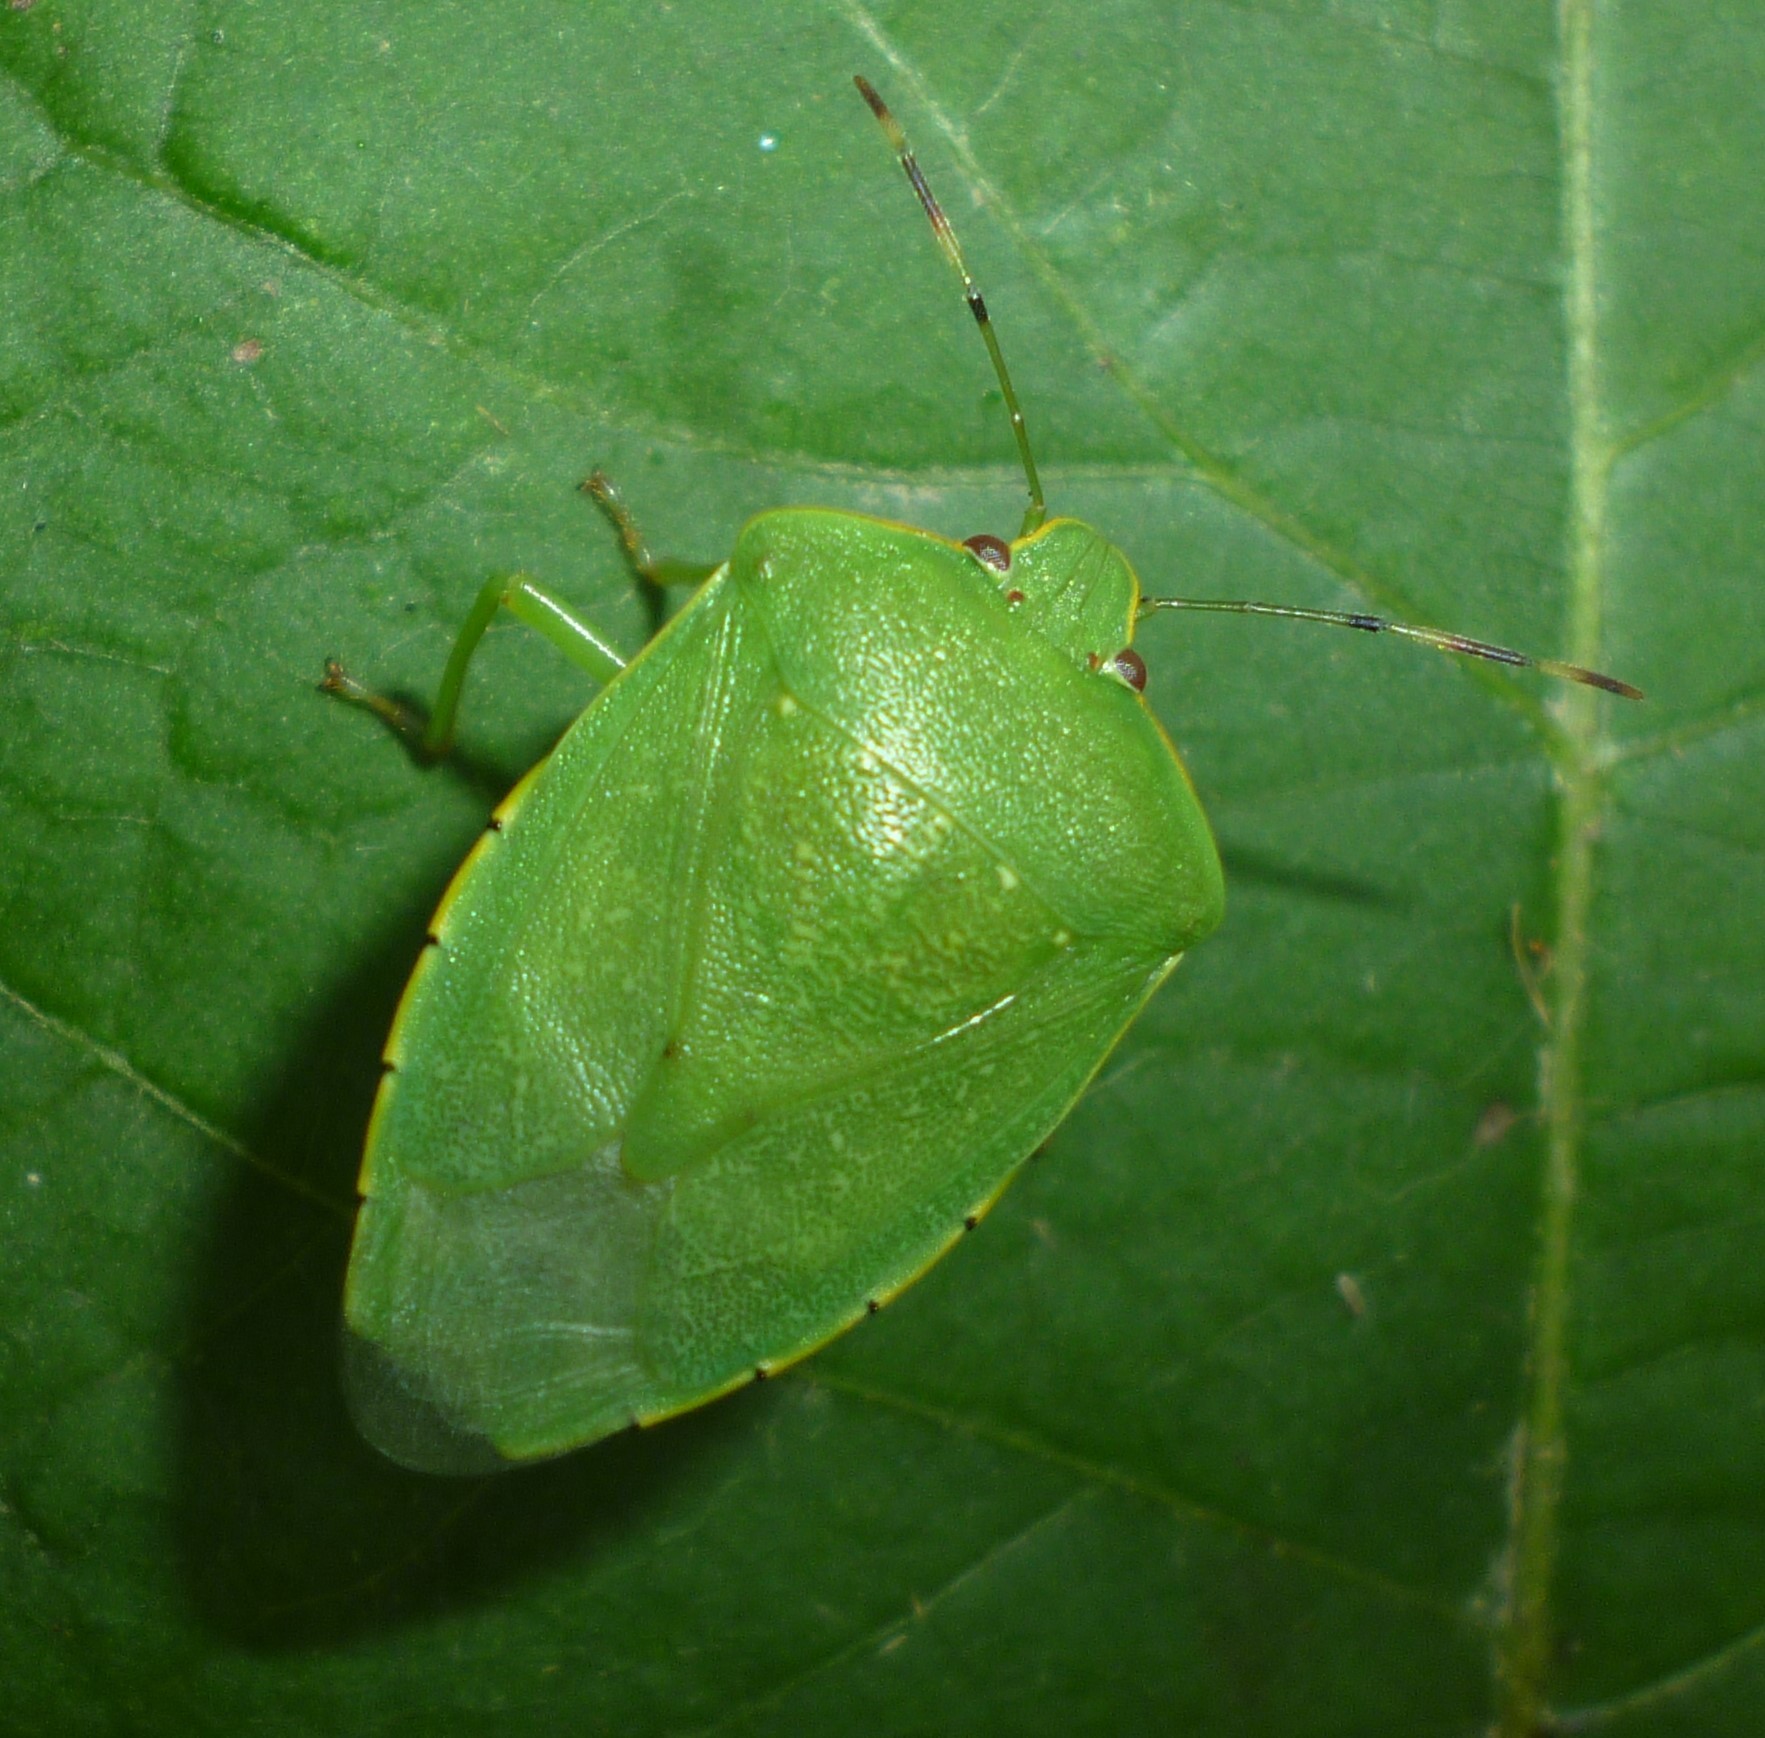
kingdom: Animalia
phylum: Arthropoda
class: Insecta
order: Hemiptera
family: Pentatomidae
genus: Chinavia
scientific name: Chinavia hilaris
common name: Green stink bug
